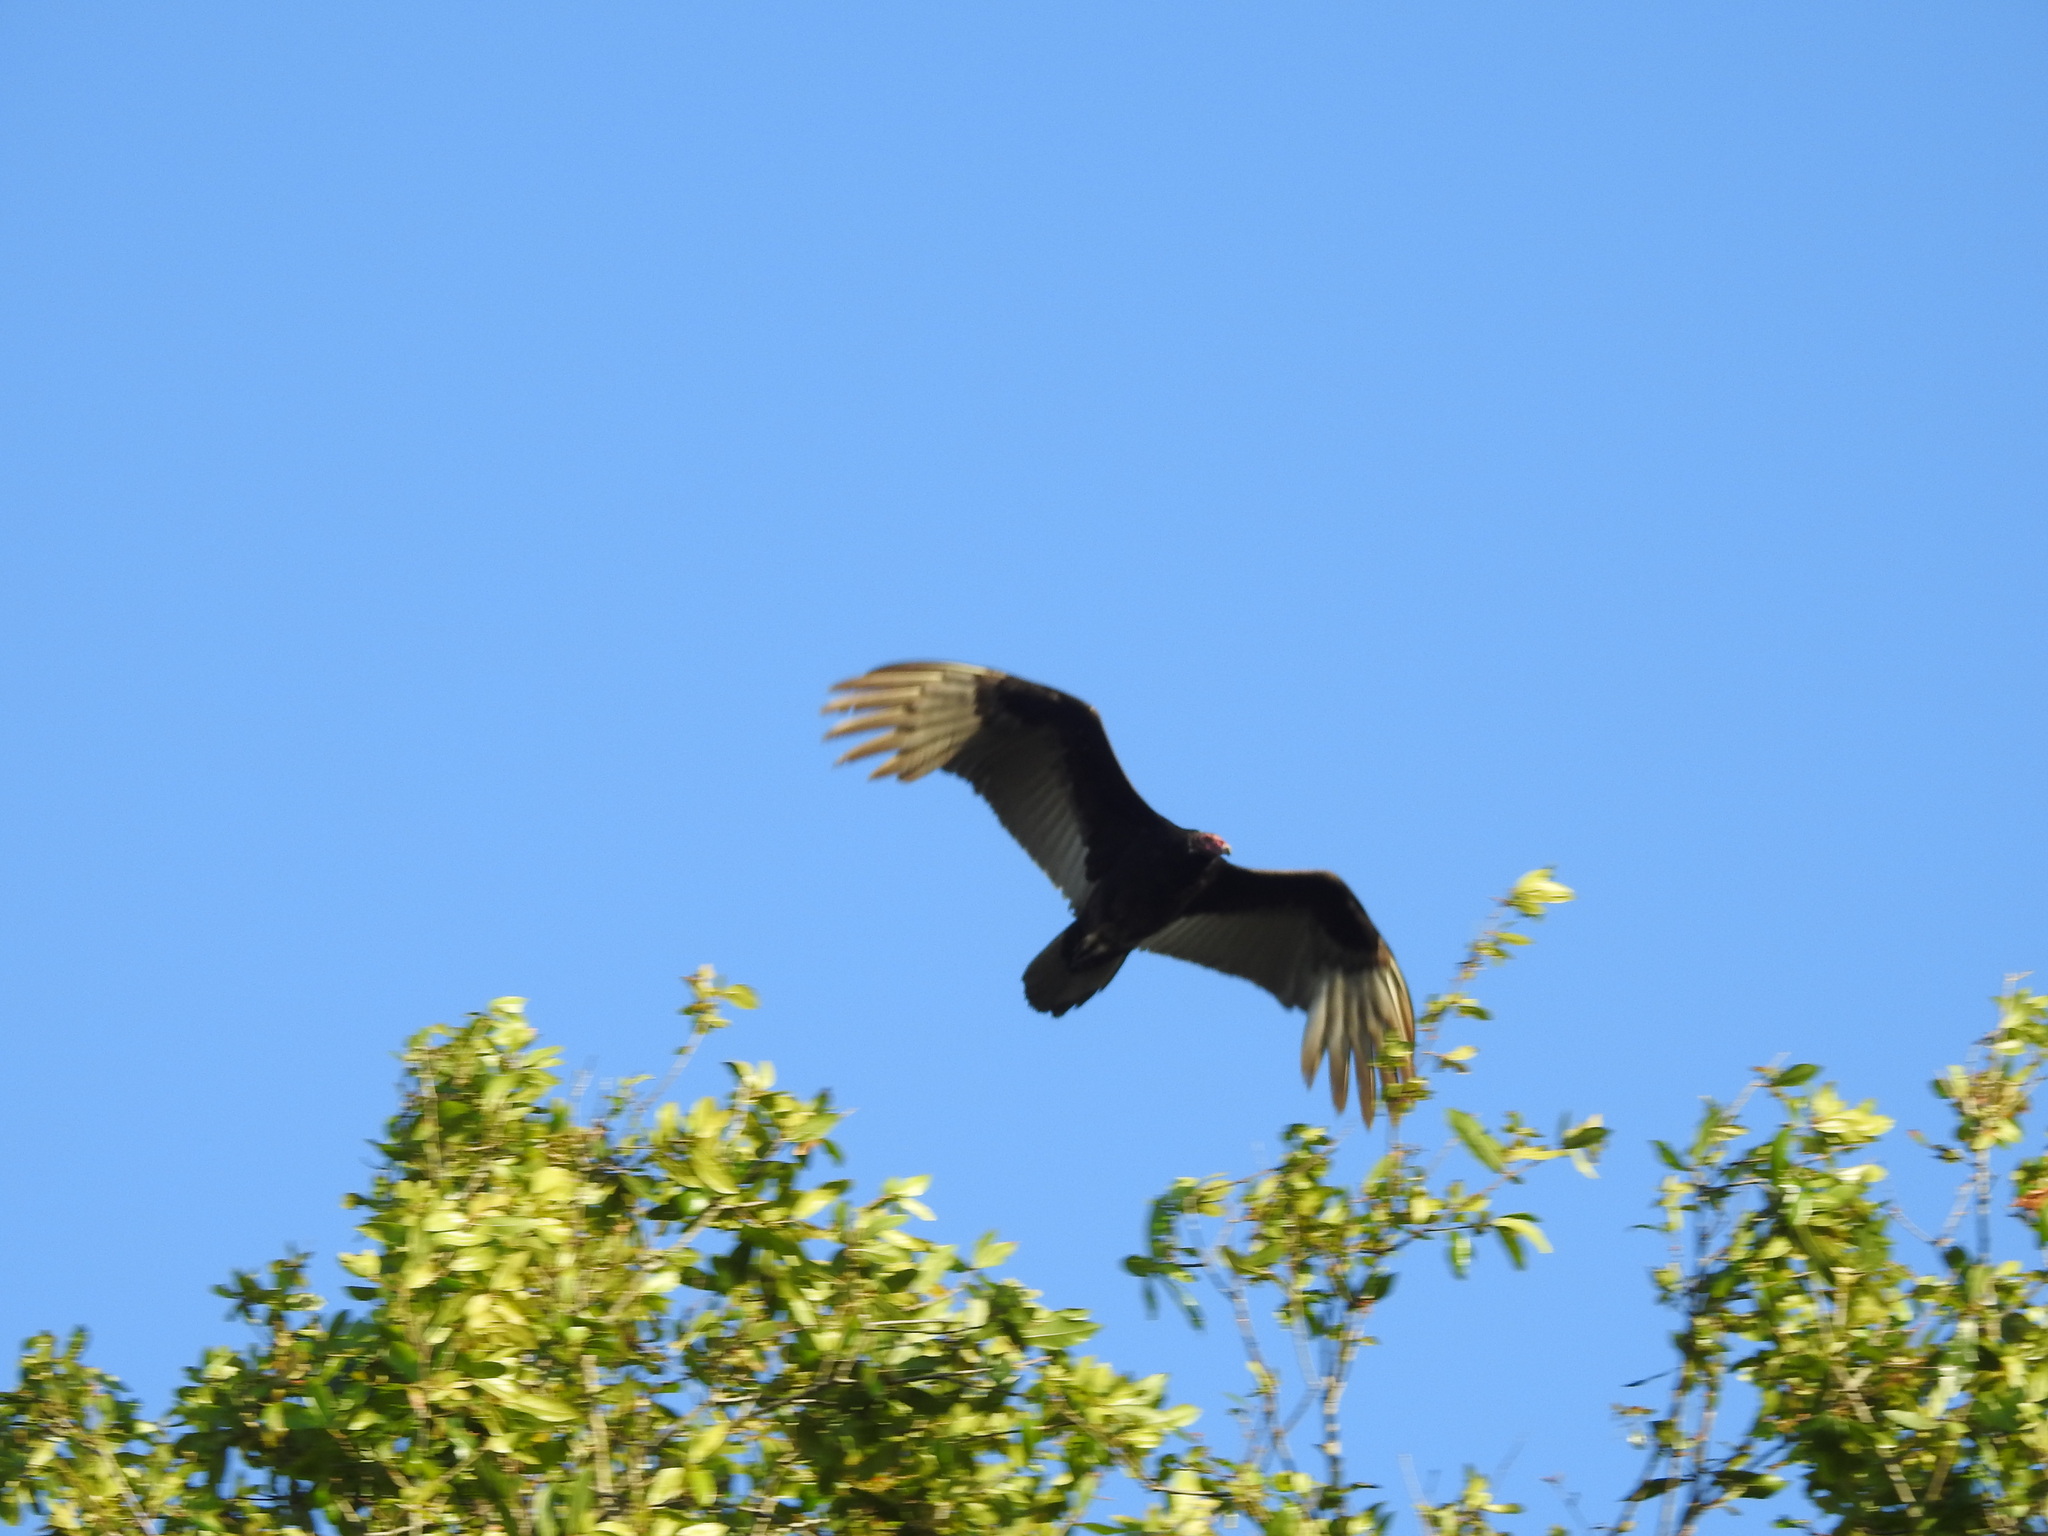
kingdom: Animalia
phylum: Chordata
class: Aves
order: Accipitriformes
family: Cathartidae
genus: Cathartes
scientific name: Cathartes aura
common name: Turkey vulture
